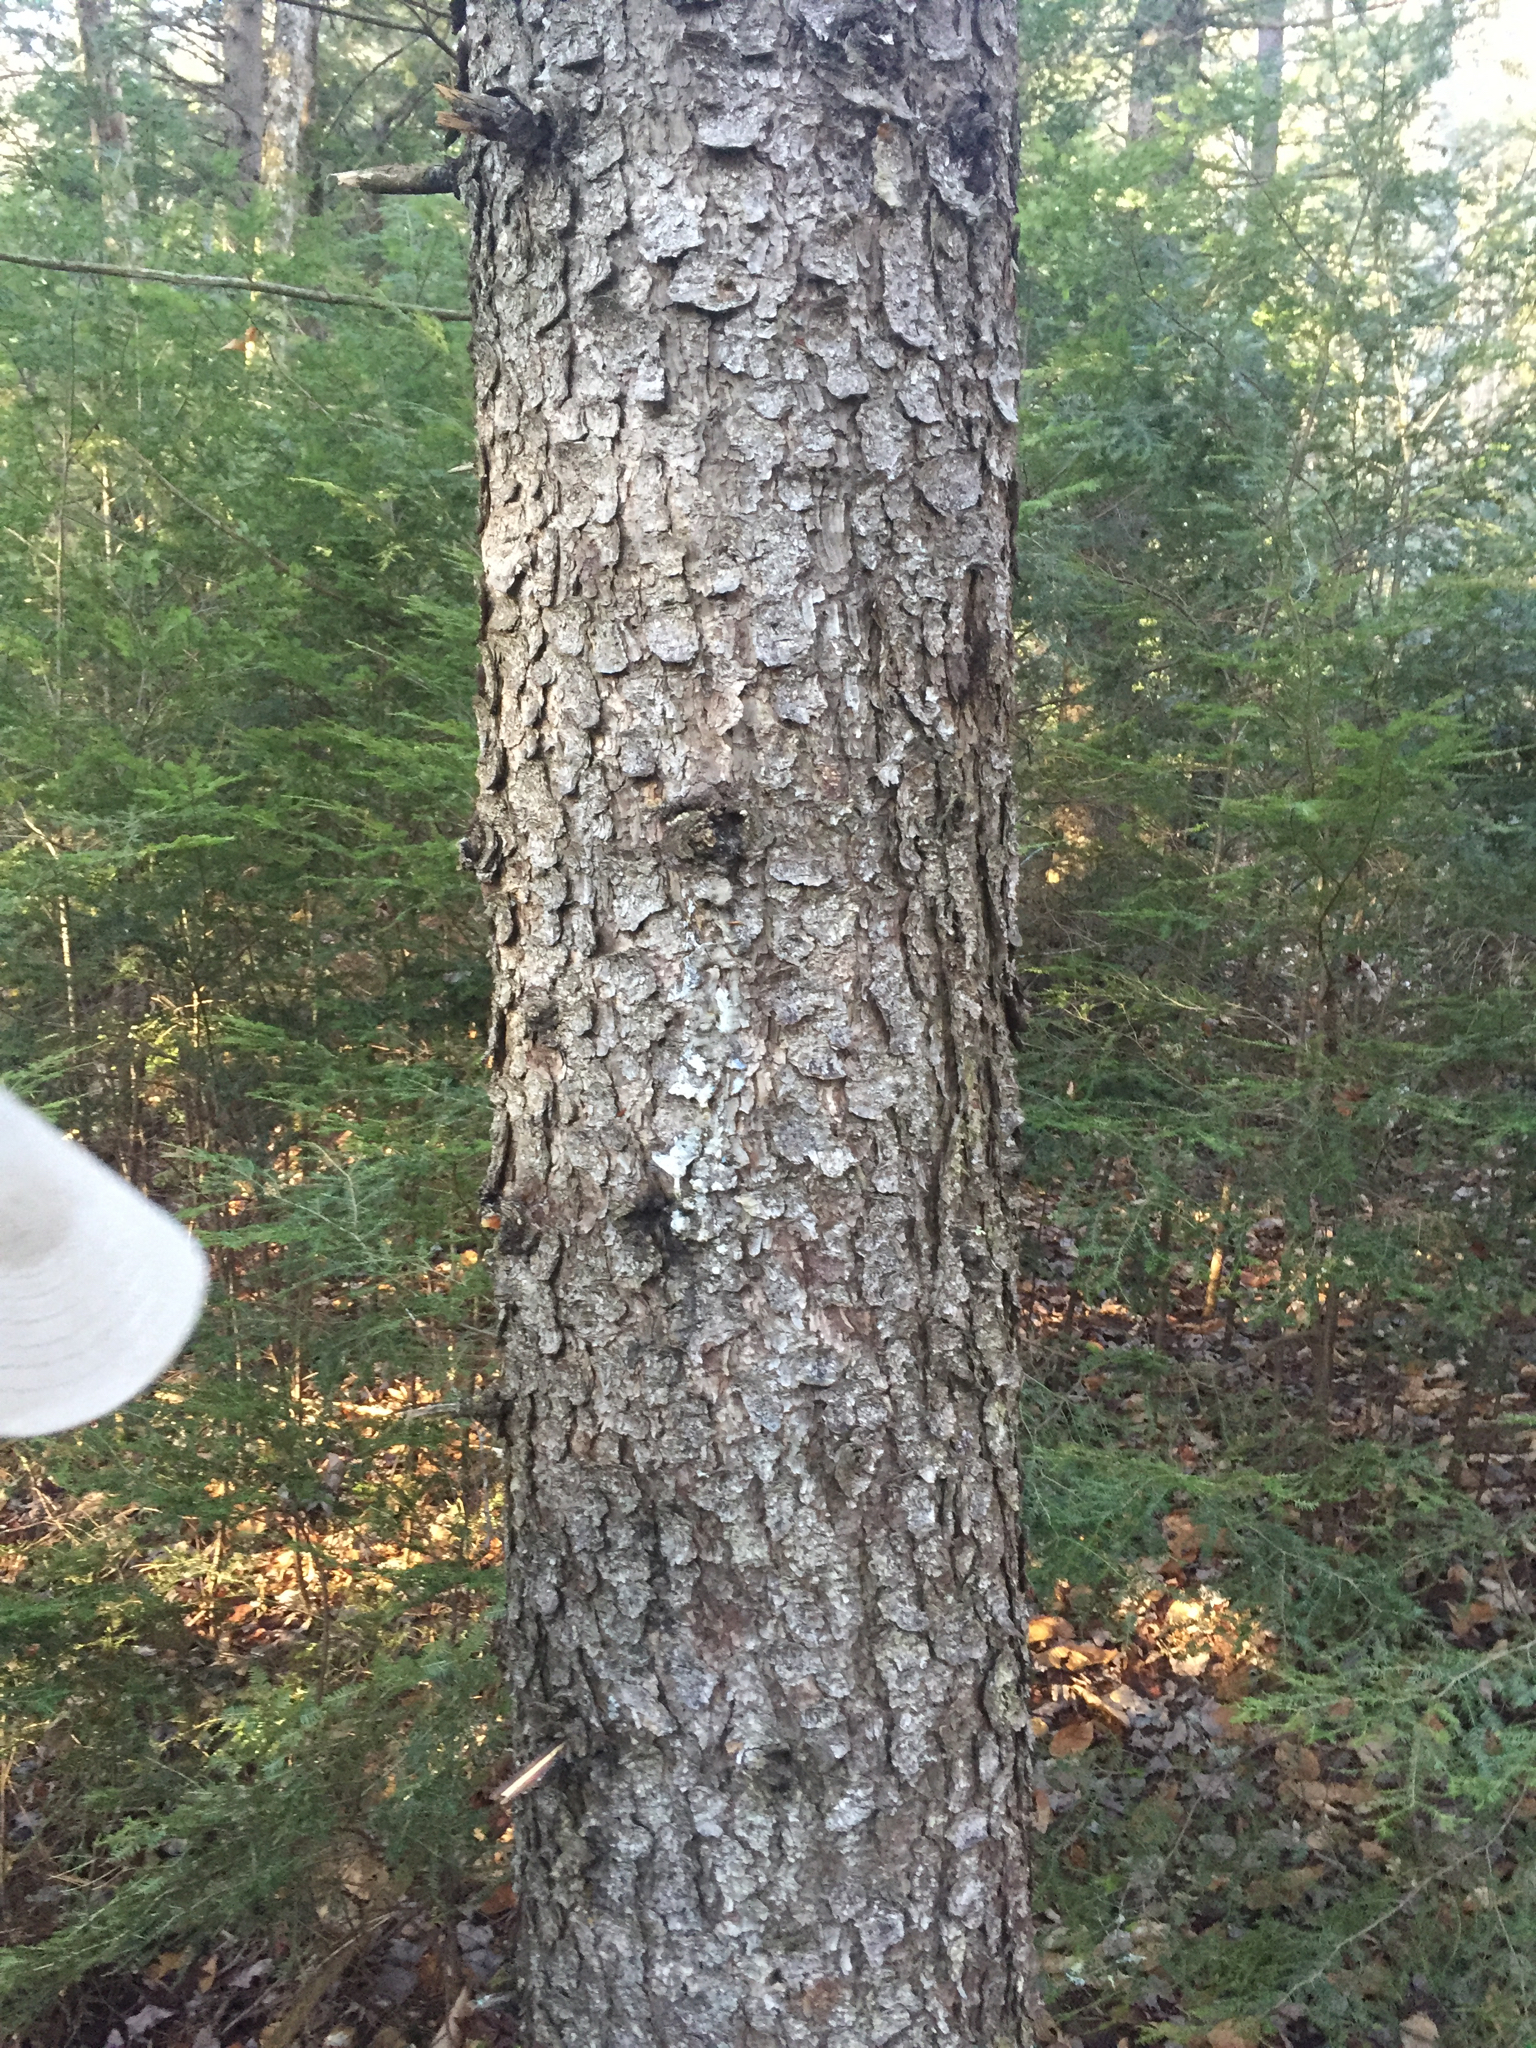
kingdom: Plantae
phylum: Tracheophyta
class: Pinopsida
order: Pinales
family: Pinaceae
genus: Picea
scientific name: Picea rubens
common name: Red spruce
